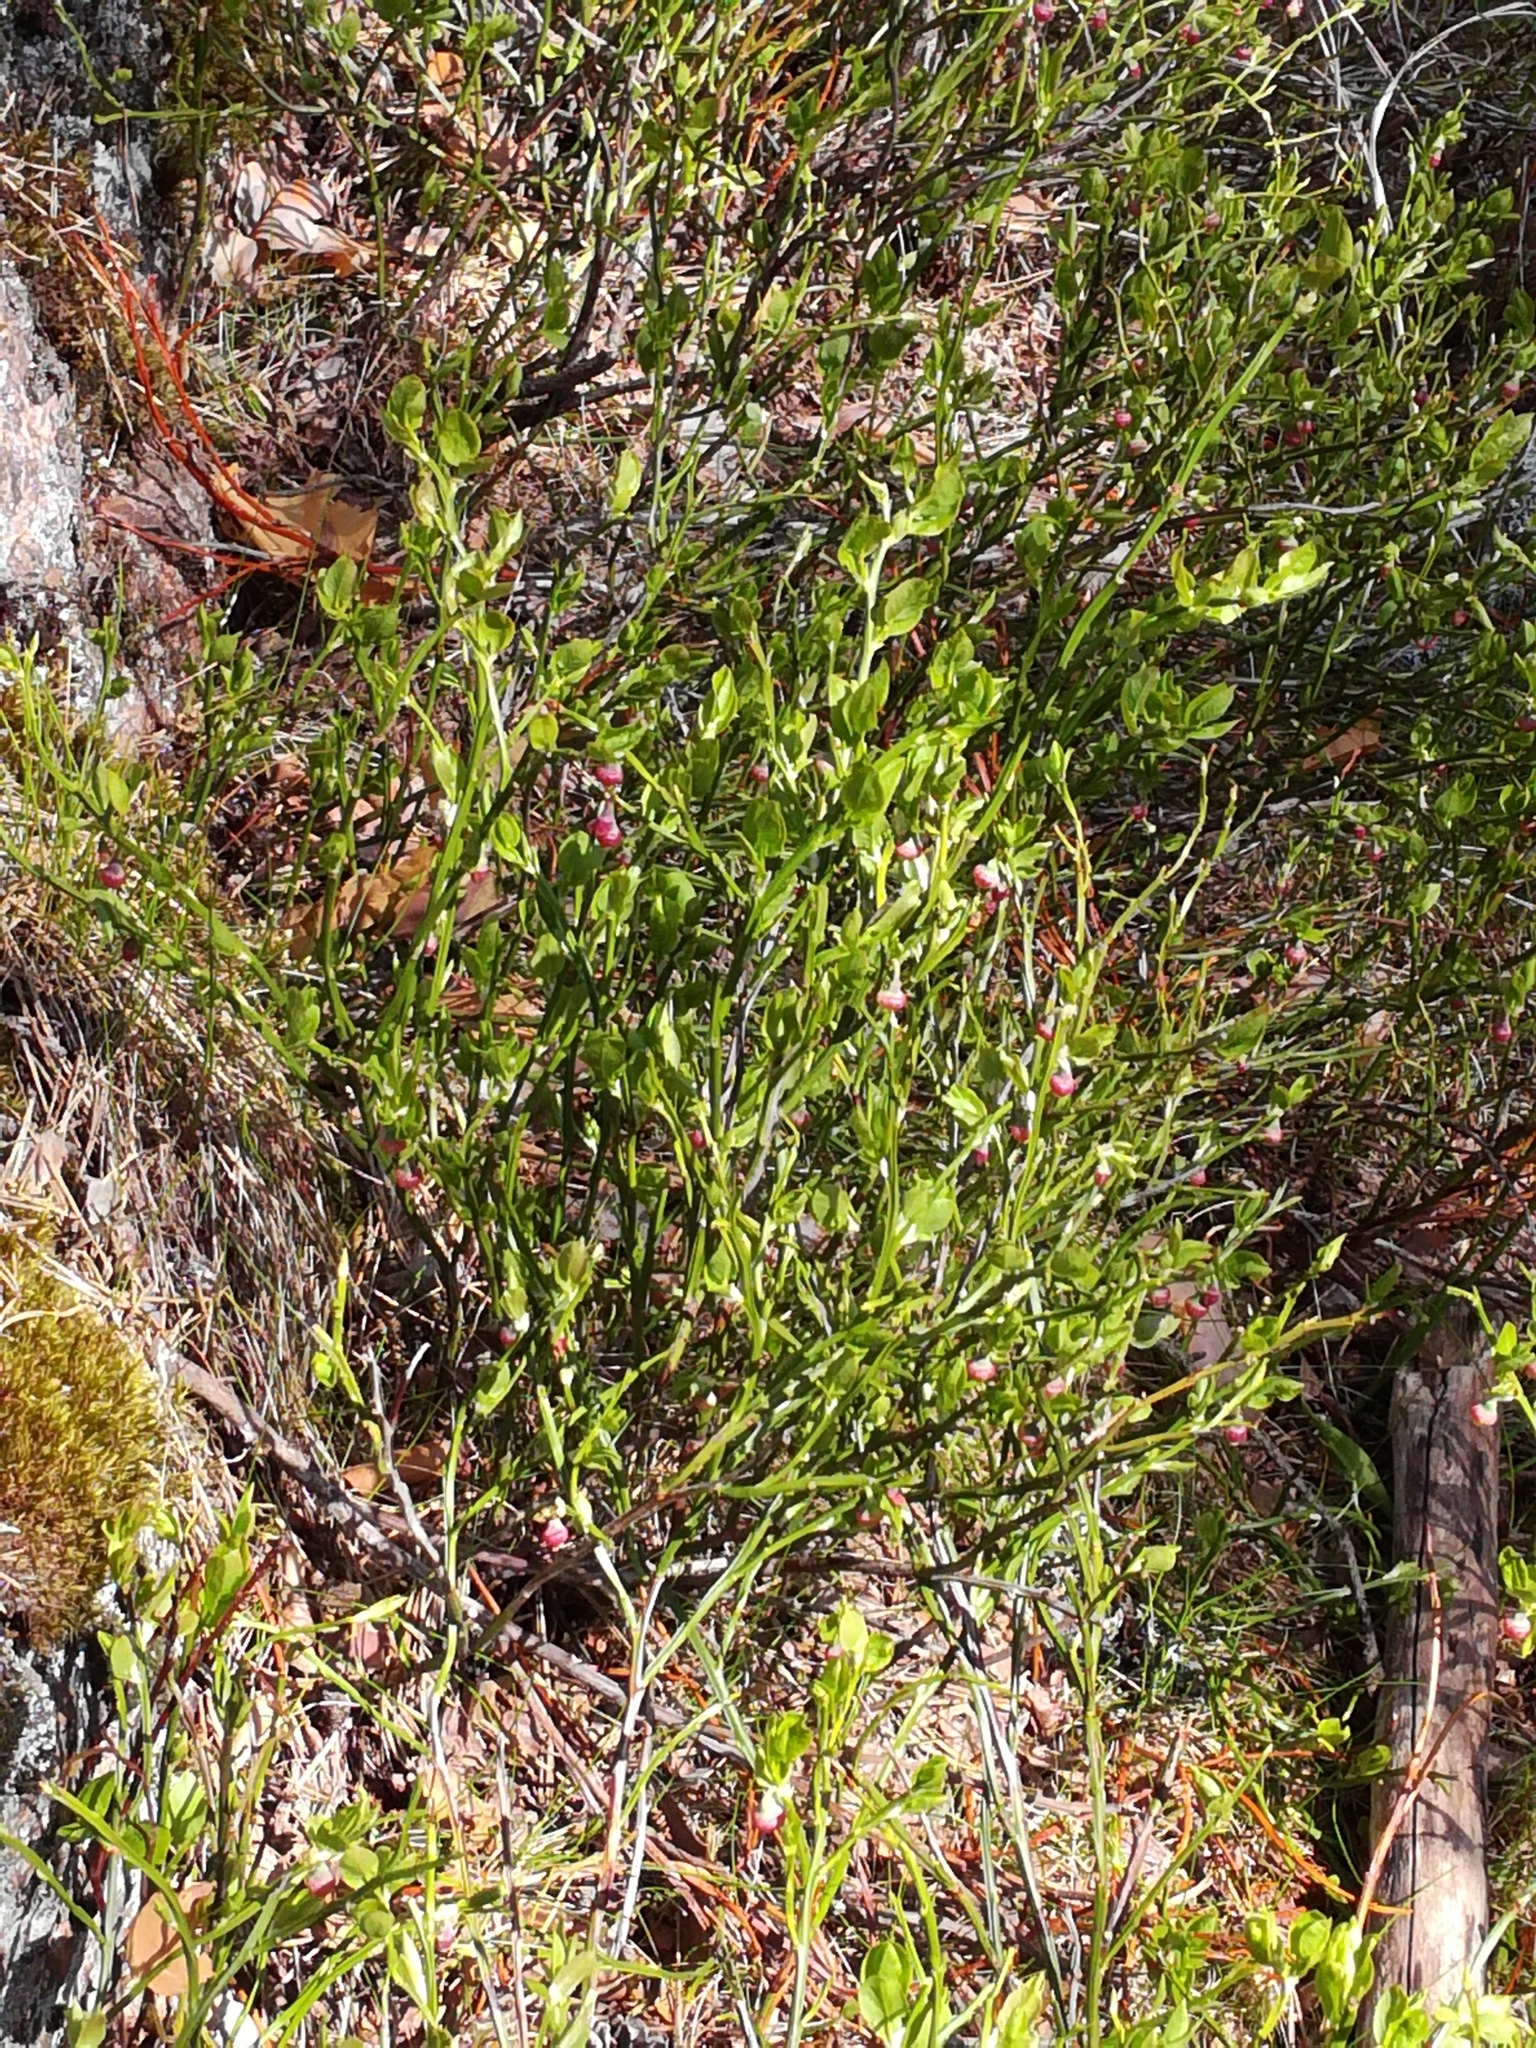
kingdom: Plantae
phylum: Tracheophyta
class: Magnoliopsida
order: Ericales
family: Ericaceae
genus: Vaccinium
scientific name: Vaccinium myrtillus
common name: Bilberry
